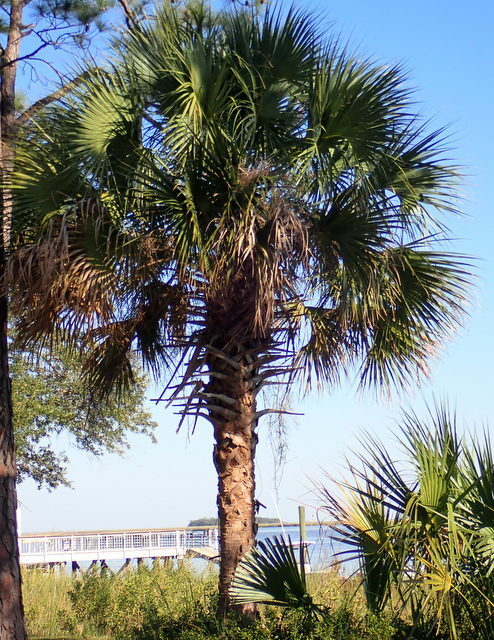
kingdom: Plantae
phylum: Tracheophyta
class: Liliopsida
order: Arecales
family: Arecaceae
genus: Sabal
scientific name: Sabal palmetto
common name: Blue palmetto
